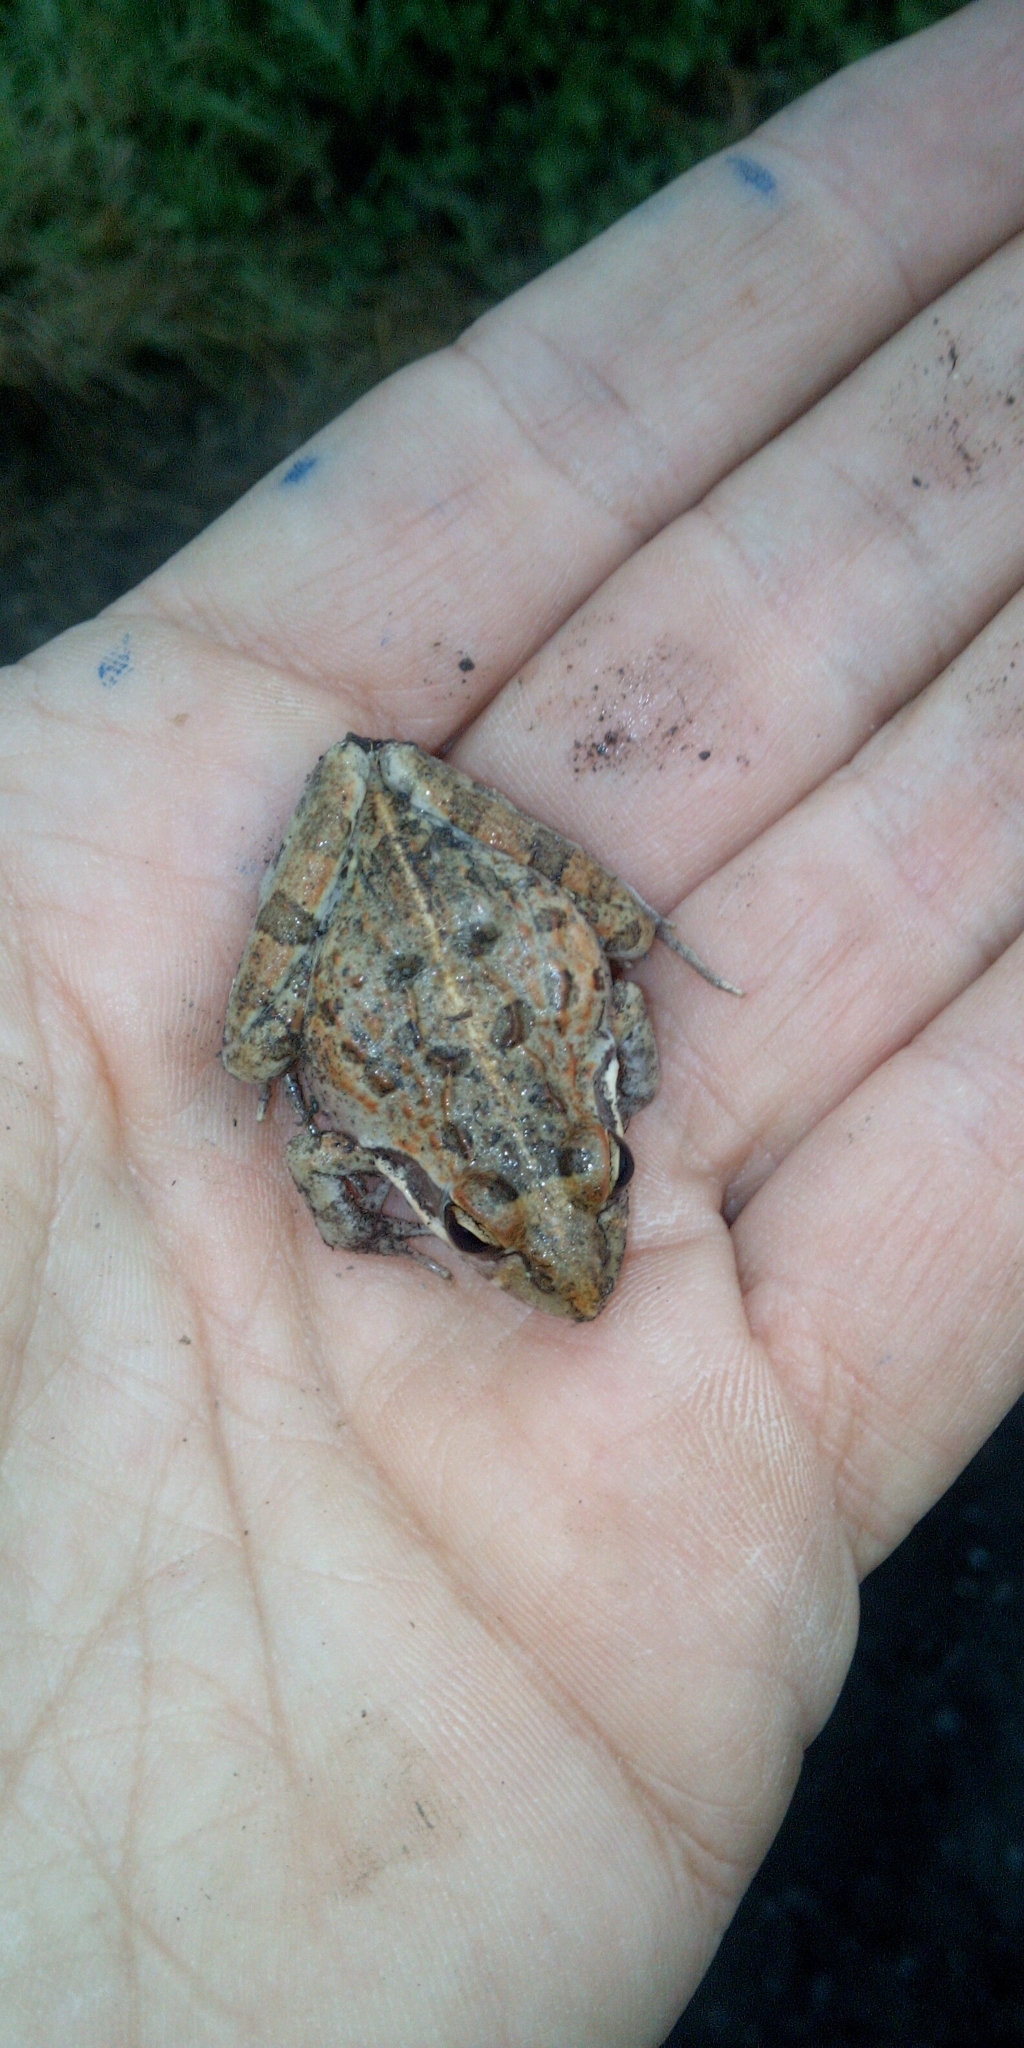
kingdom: Animalia
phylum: Chordata
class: Amphibia
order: Anura
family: Pyxicephalidae
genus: Strongylopus
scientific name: Strongylopus grayii
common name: Gray's stream frog
